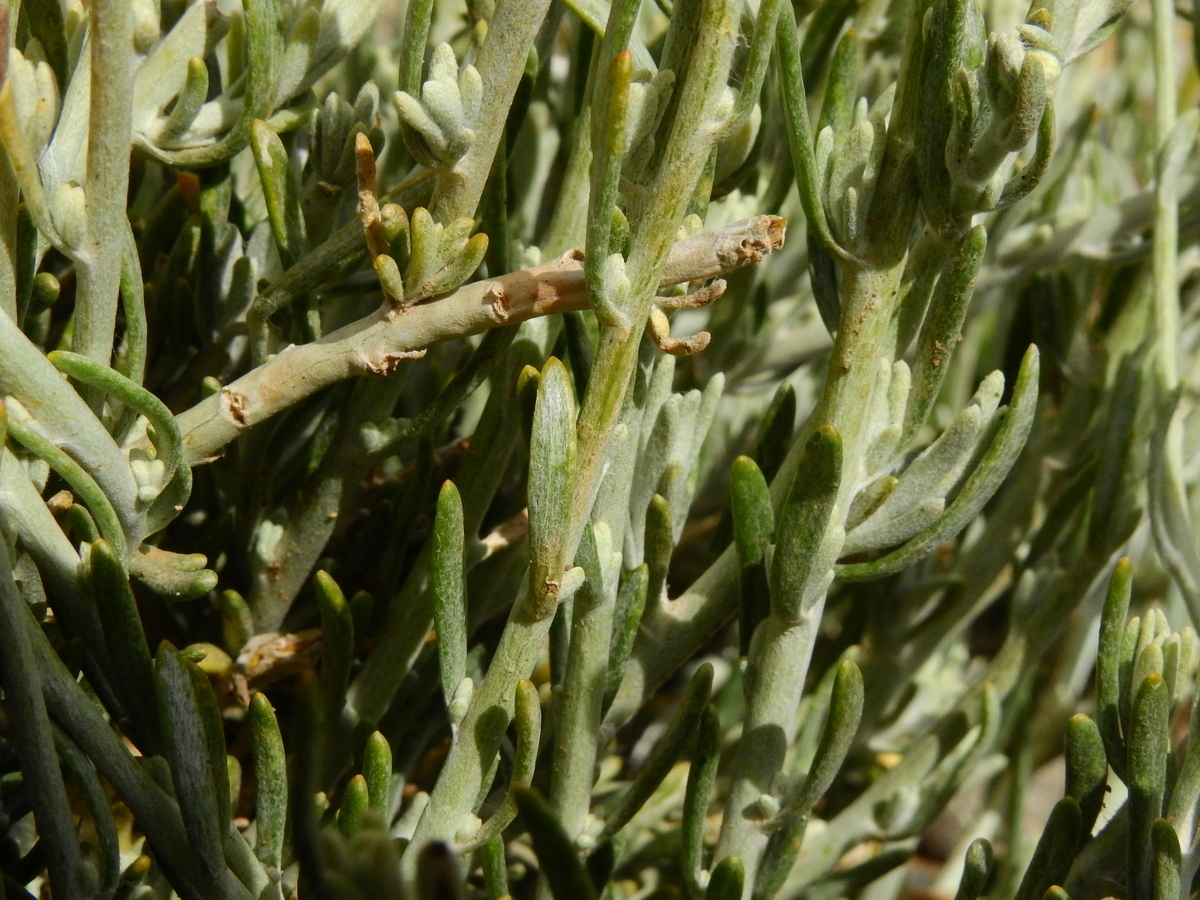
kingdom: Plantae
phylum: Tracheophyta
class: Magnoliopsida
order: Asterales
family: Asteraceae
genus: Senecio
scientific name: Senecio neaei
